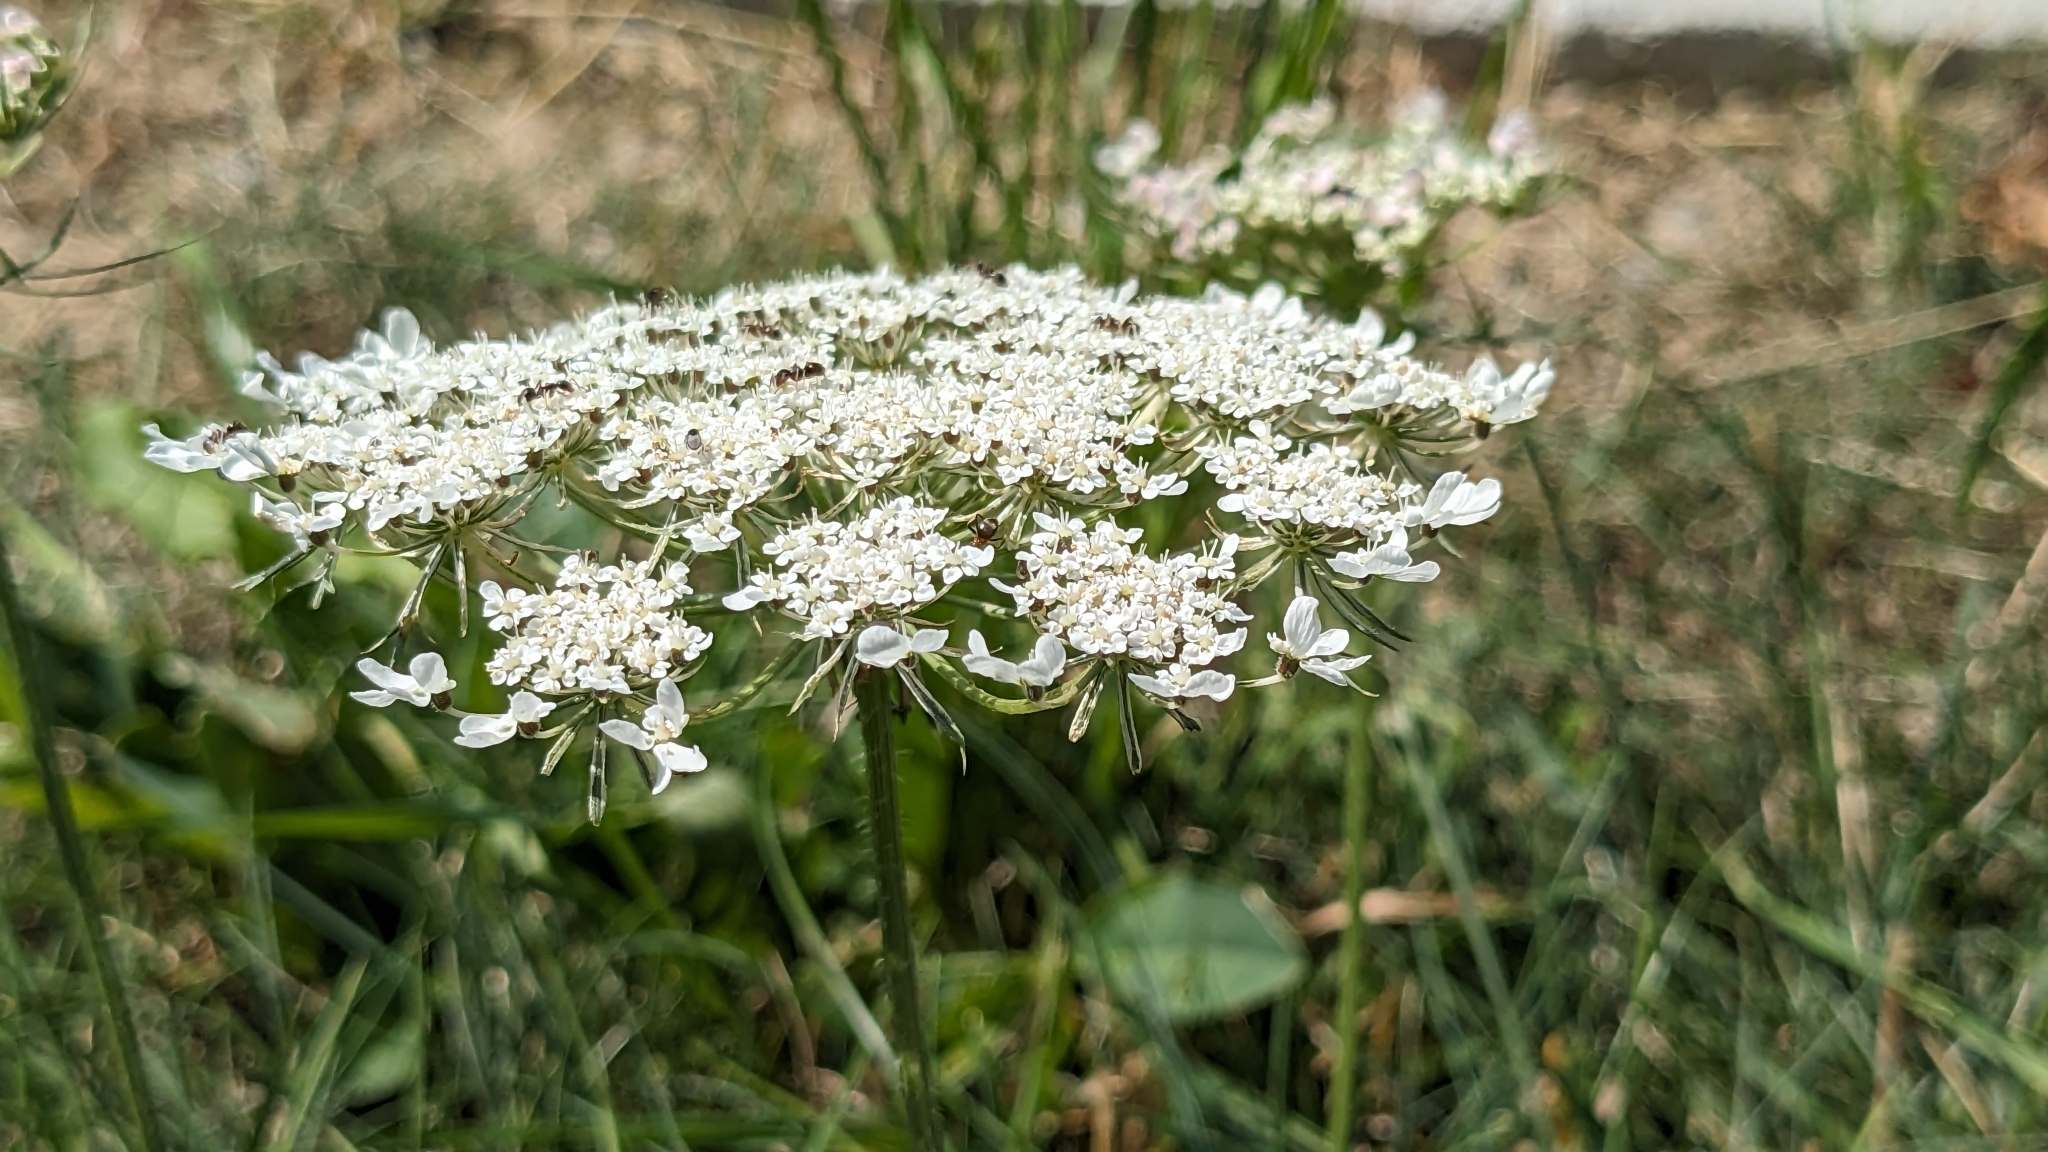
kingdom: Plantae
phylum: Tracheophyta
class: Magnoliopsida
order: Apiales
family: Apiaceae
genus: Daucus
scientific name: Daucus carota
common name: Wild carrot
